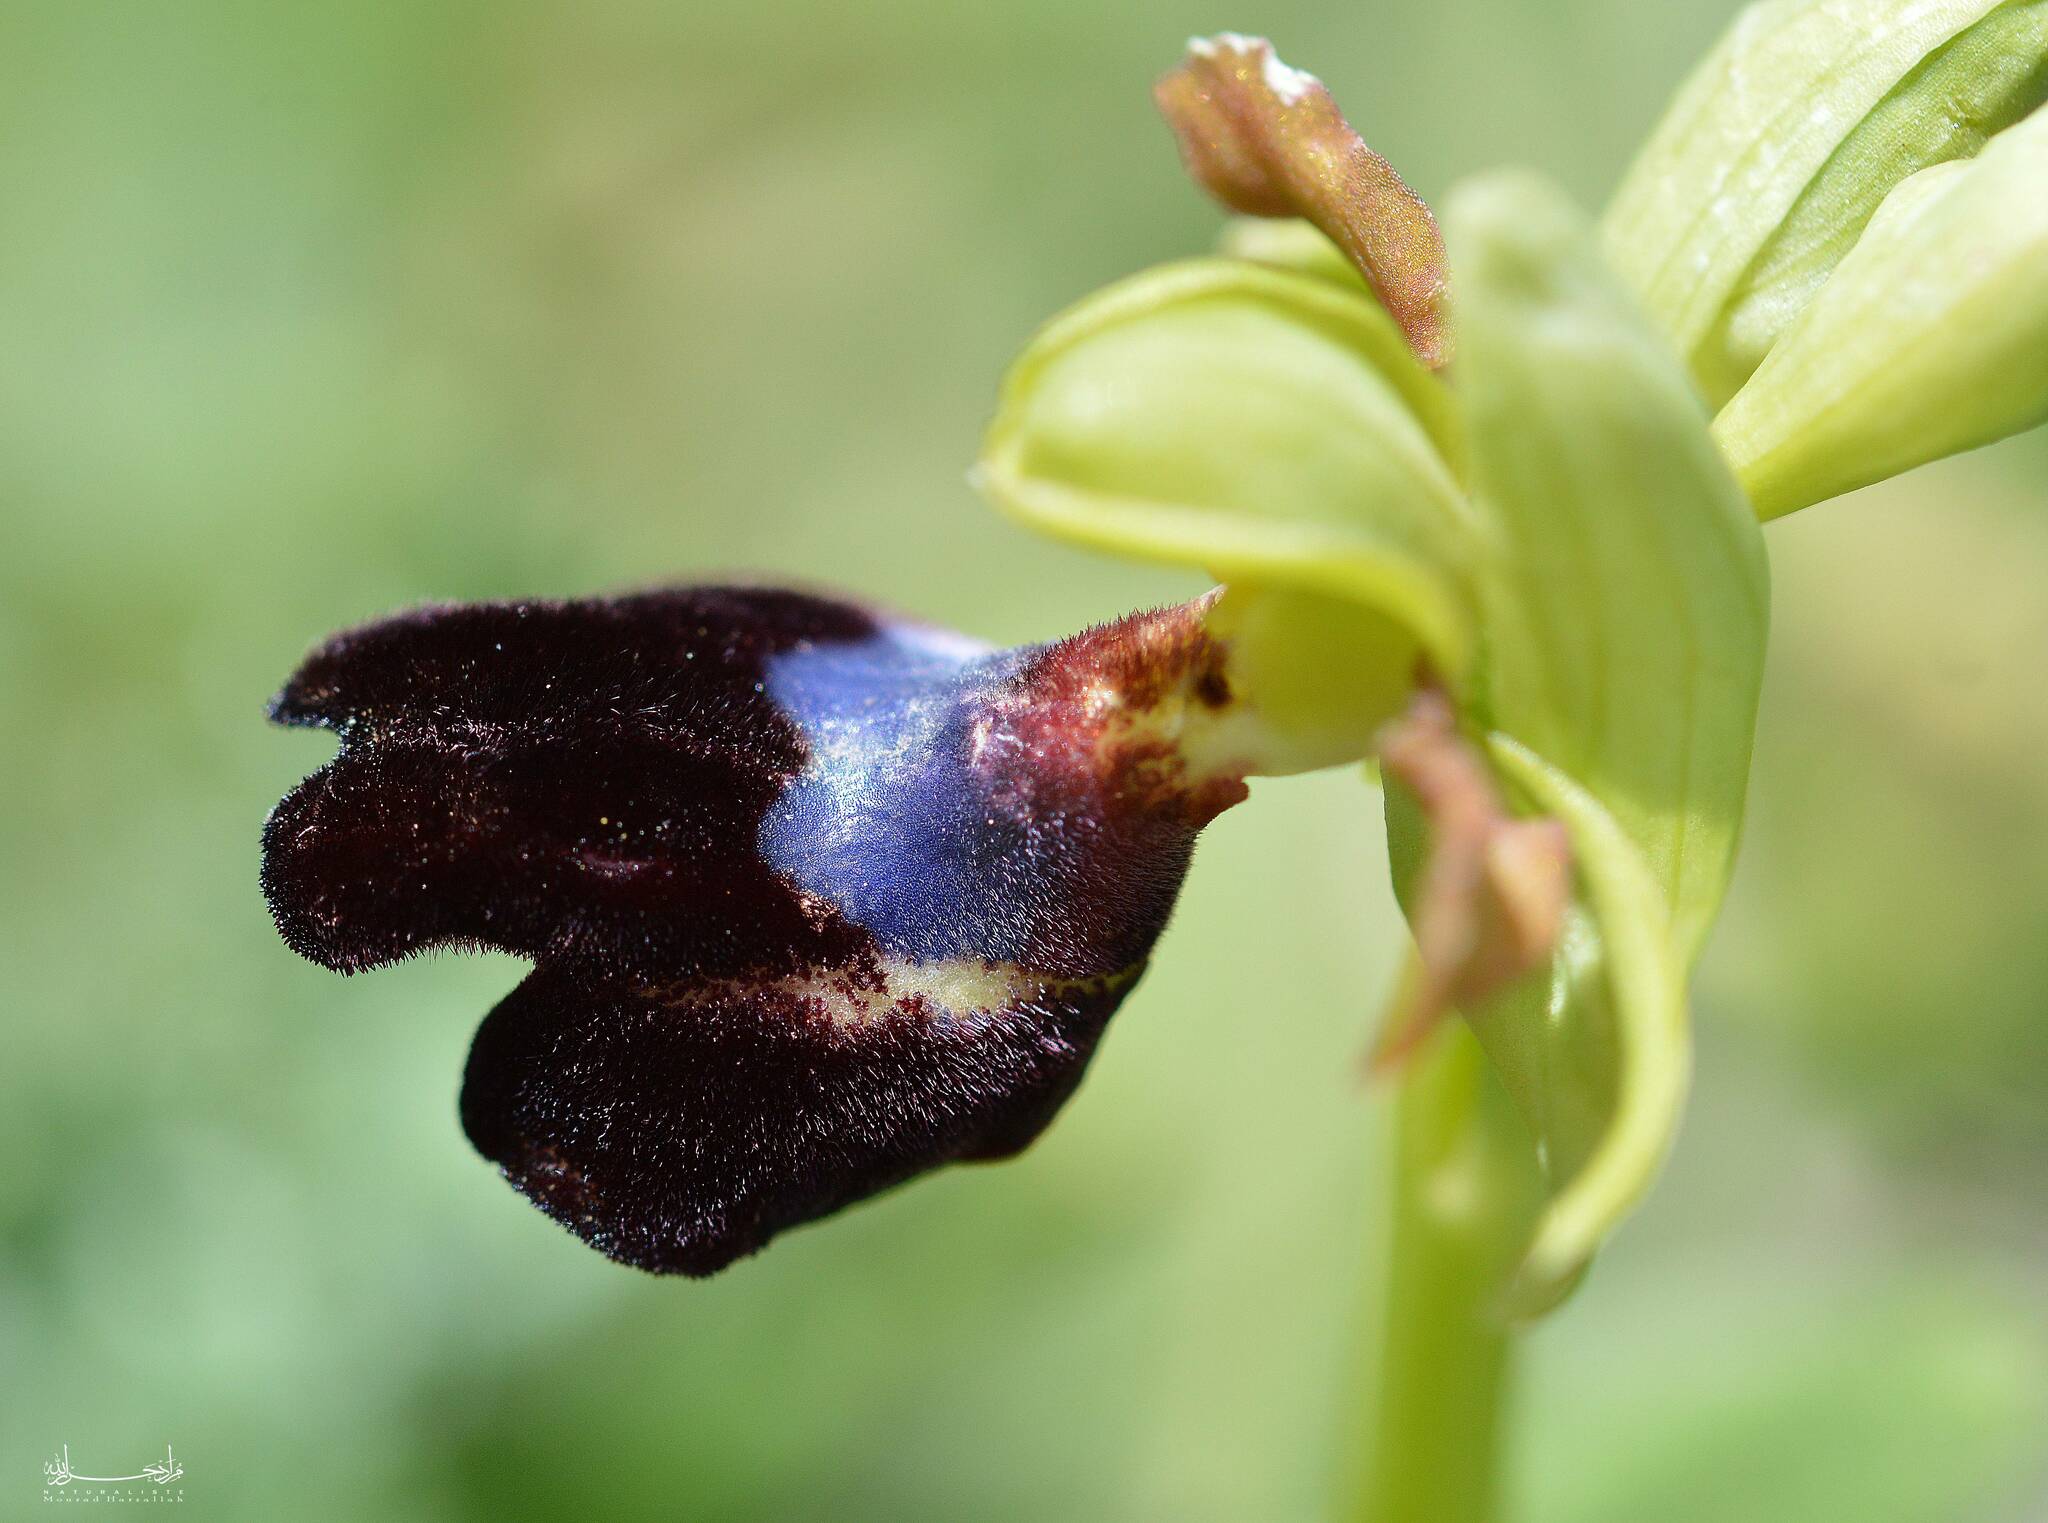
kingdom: Plantae
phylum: Tracheophyta
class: Liliopsida
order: Asparagales
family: Orchidaceae
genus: Ophrys
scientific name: Ophrys atlantica
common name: Atlantic ophrys
